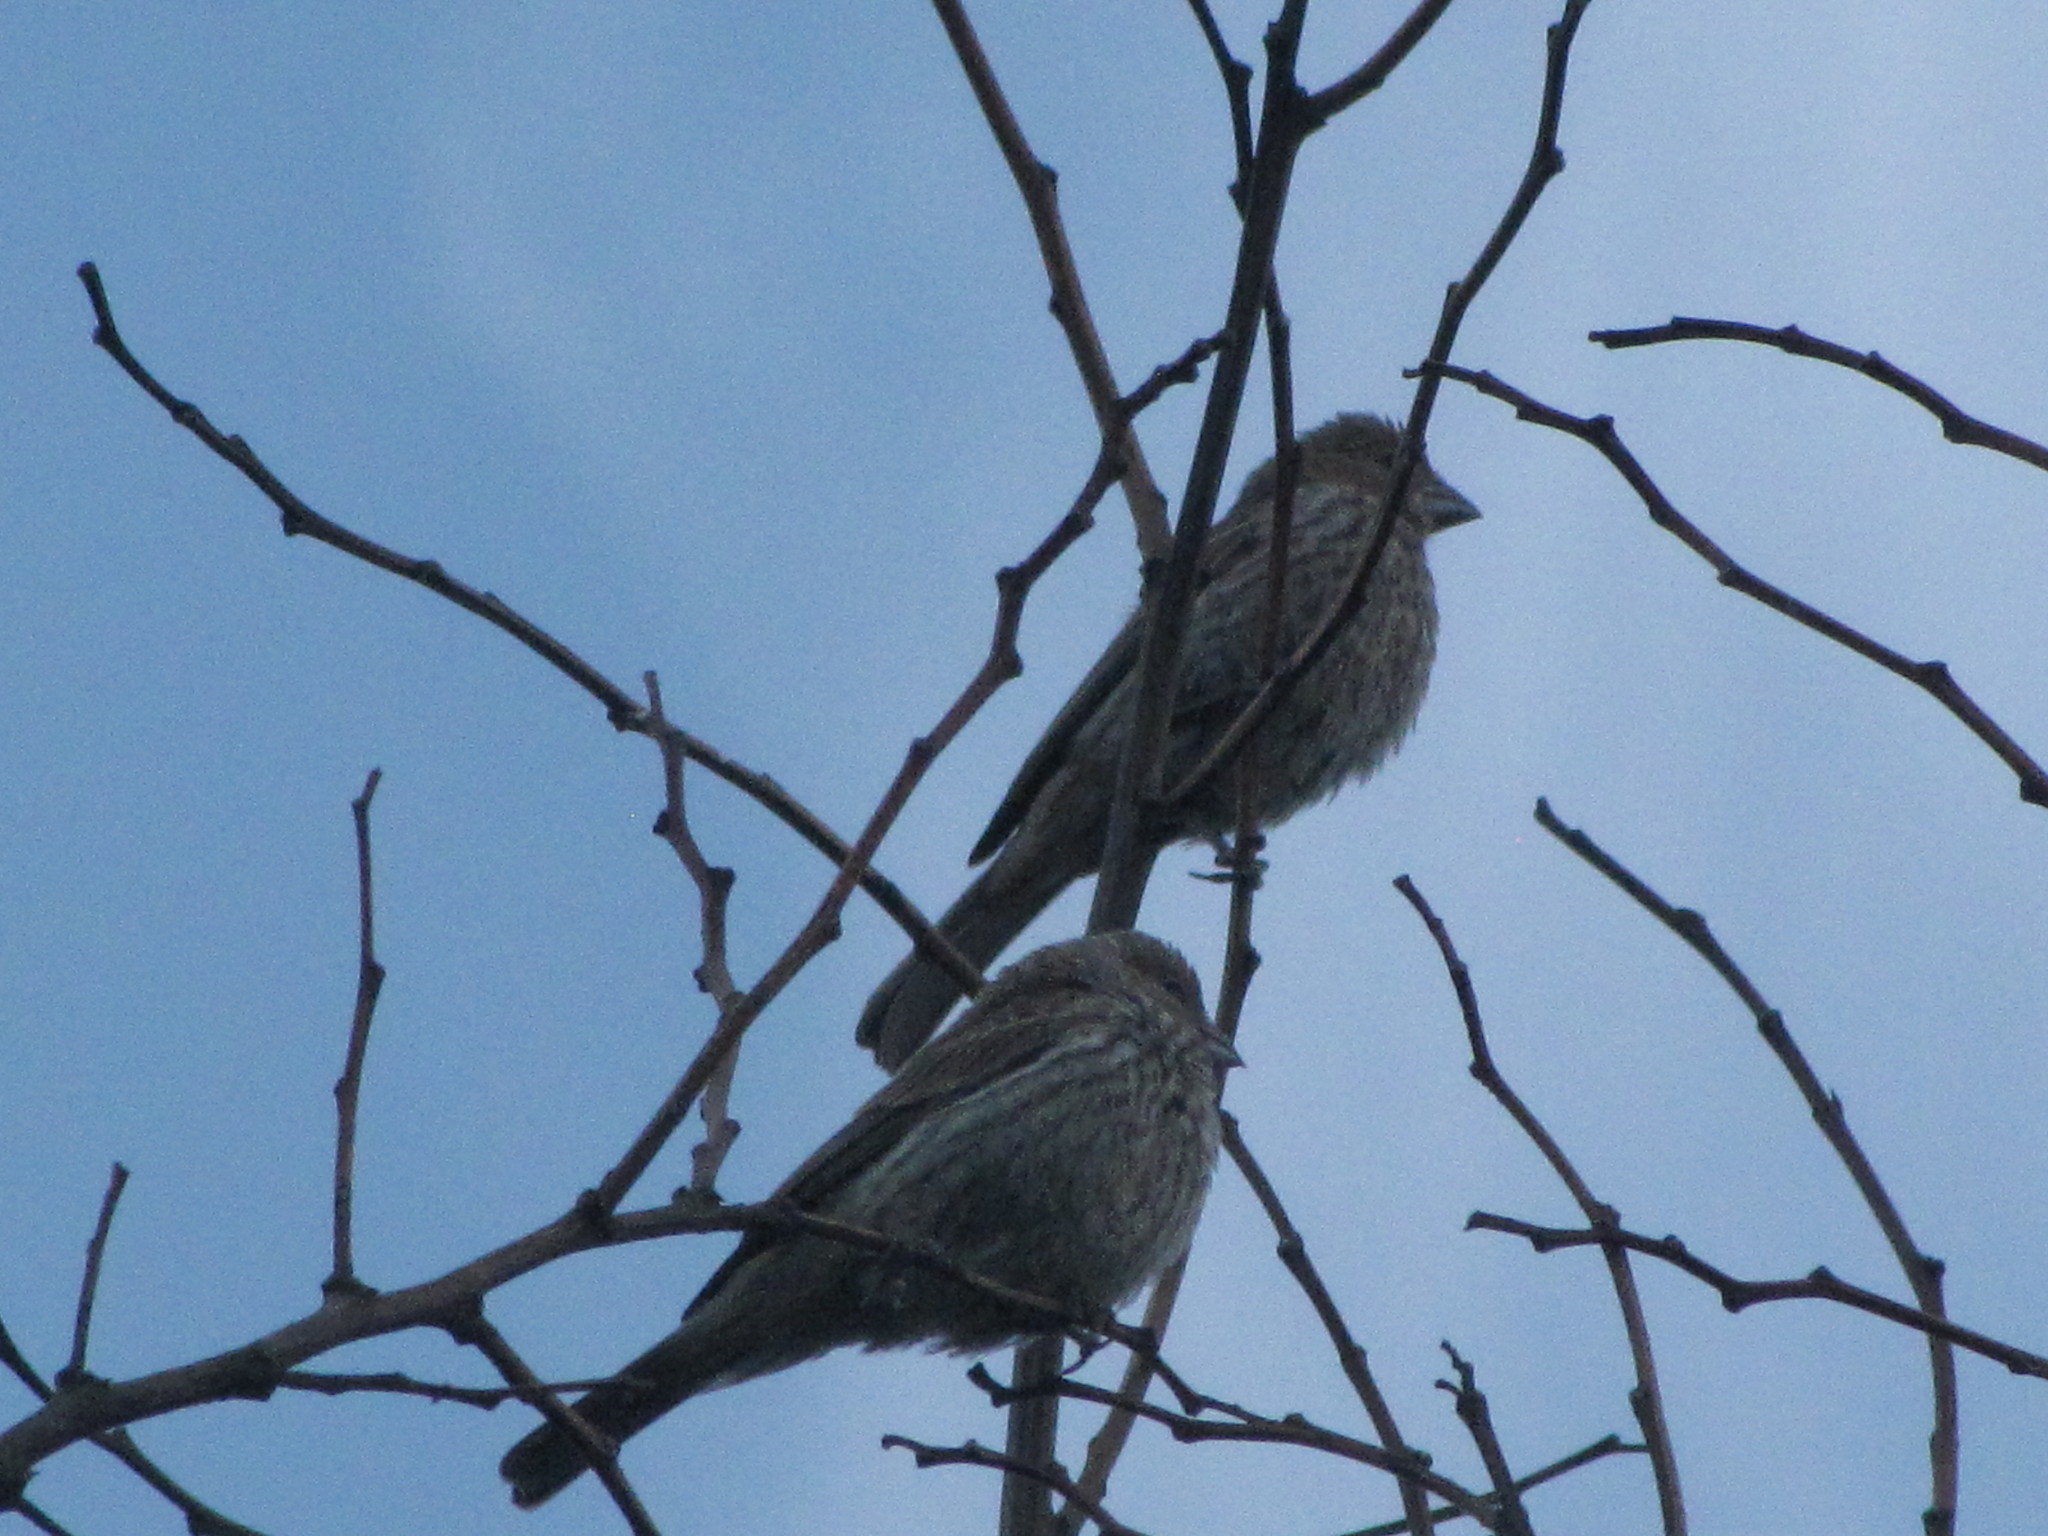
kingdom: Animalia
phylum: Chordata
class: Aves
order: Passeriformes
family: Fringillidae
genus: Haemorhous
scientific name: Haemorhous mexicanus
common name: House finch
